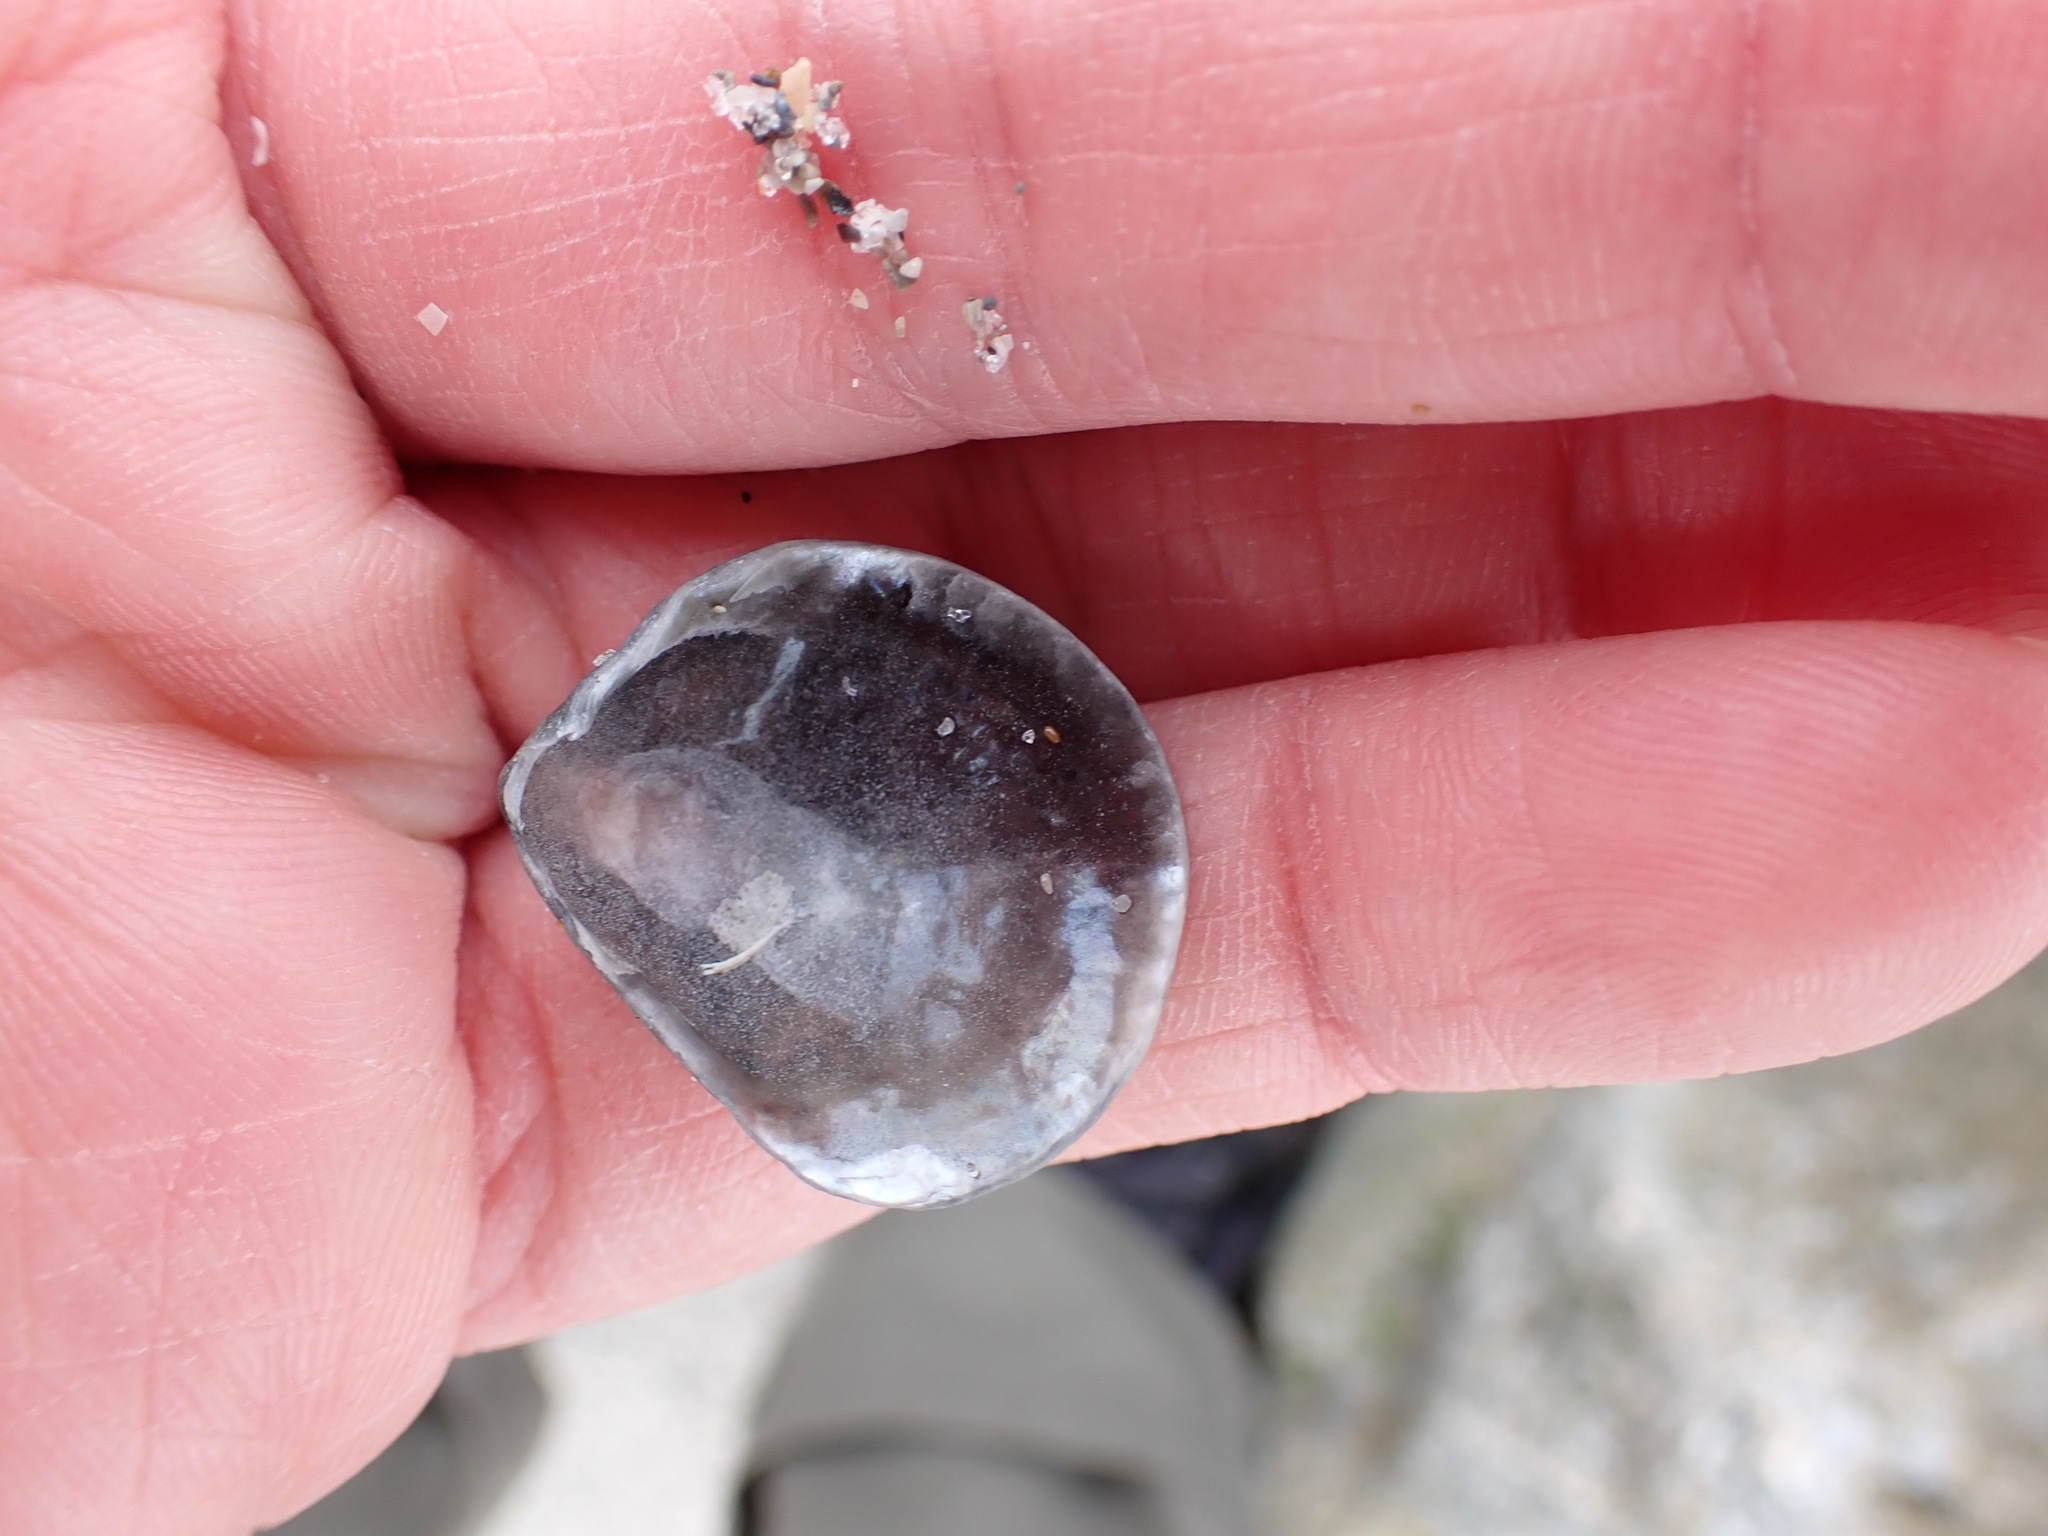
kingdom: Animalia
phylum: Mollusca
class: Bivalvia
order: Pectinida
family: Anomiidae
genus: Anomia
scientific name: Anomia simplex
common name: Common jingle shell
